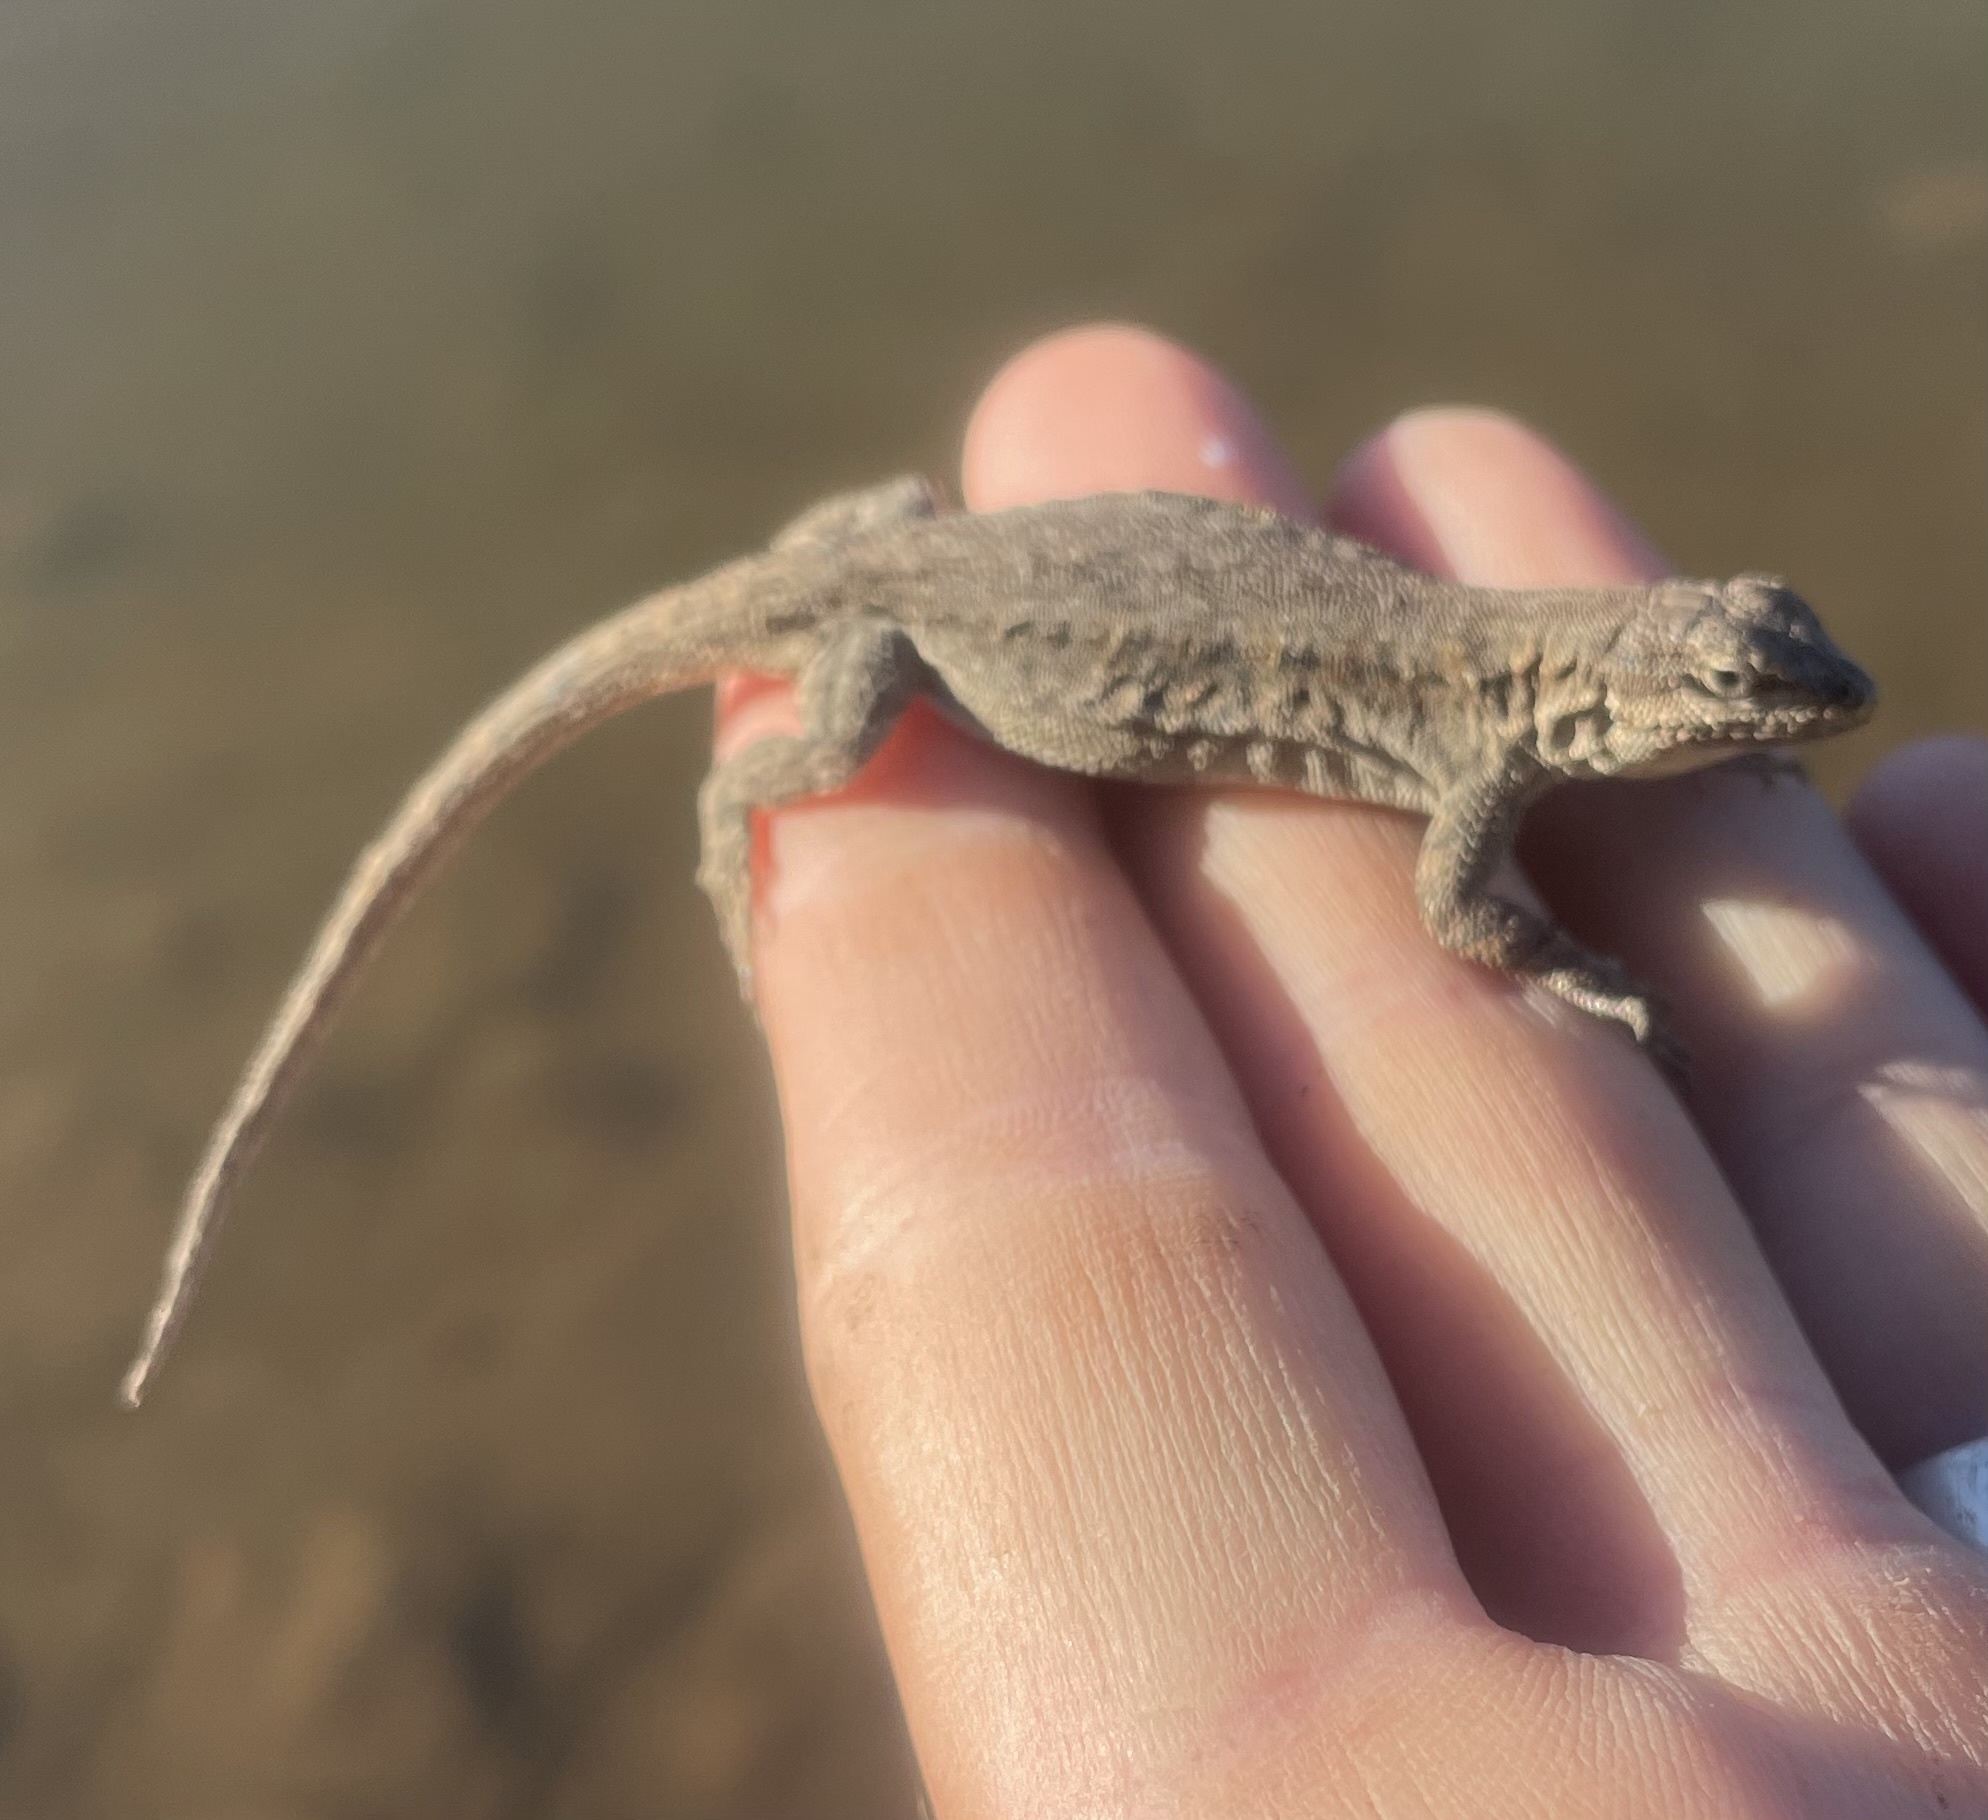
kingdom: Animalia
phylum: Chordata
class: Squamata
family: Phrynosomatidae
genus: Urosaurus
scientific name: Urosaurus ornatus
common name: Ornate tree lizard
